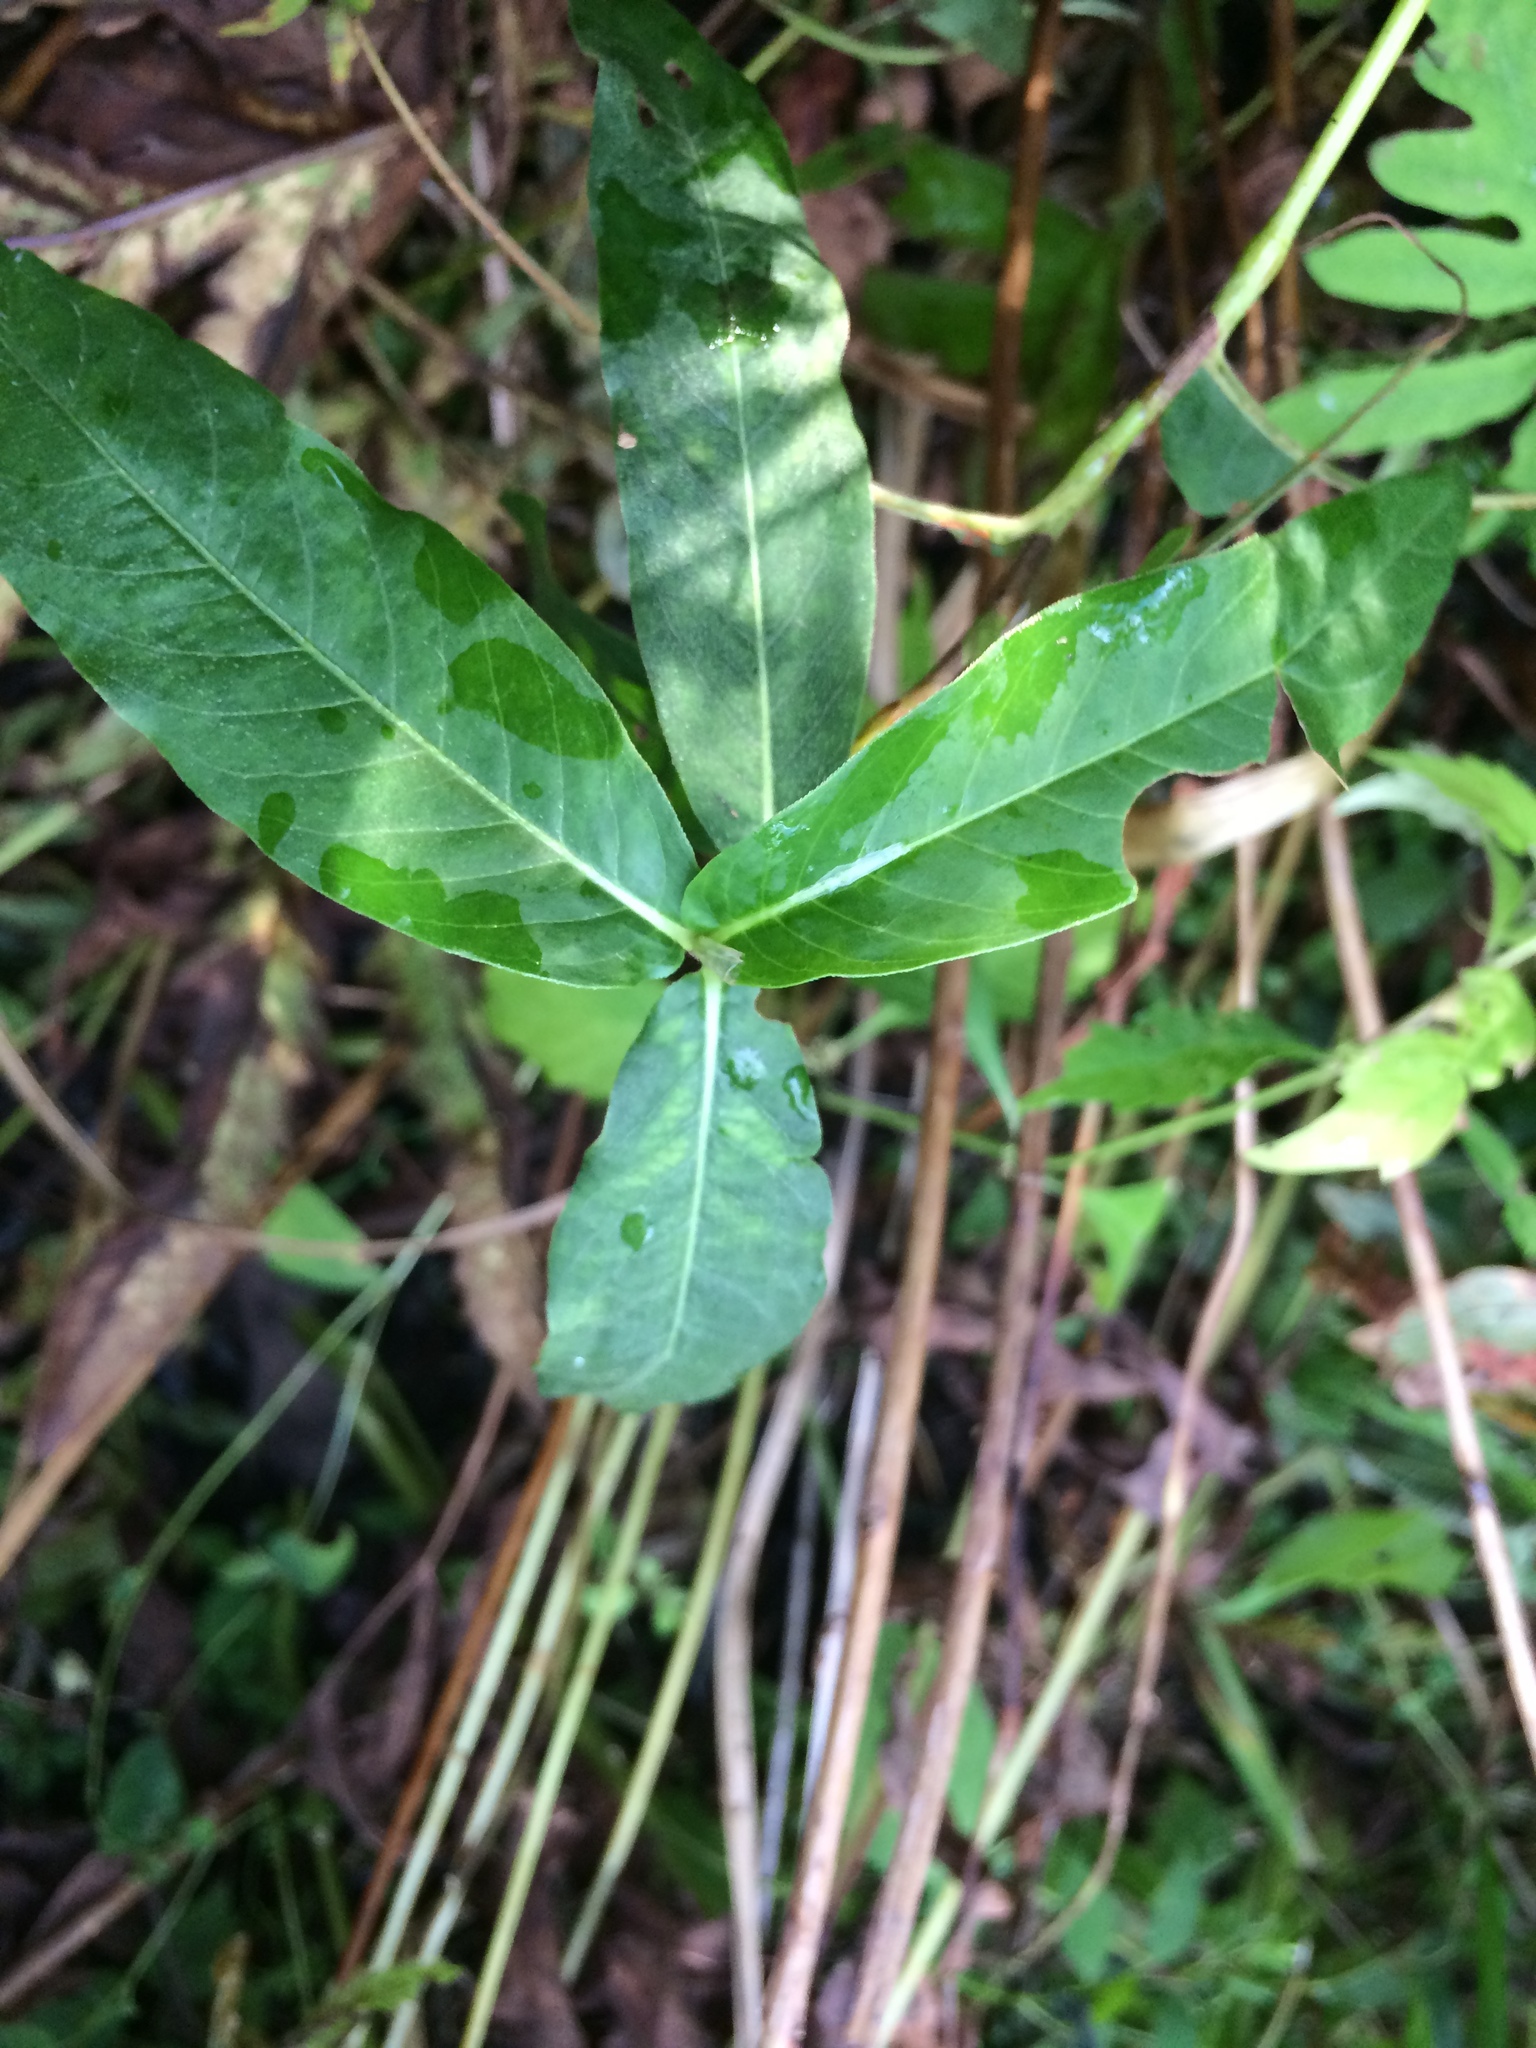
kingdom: Plantae
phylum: Tracheophyta
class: Magnoliopsida
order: Caryophyllales
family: Polygonaceae
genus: Persicaria
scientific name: Persicaria amphibia
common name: Amphibious bistort
